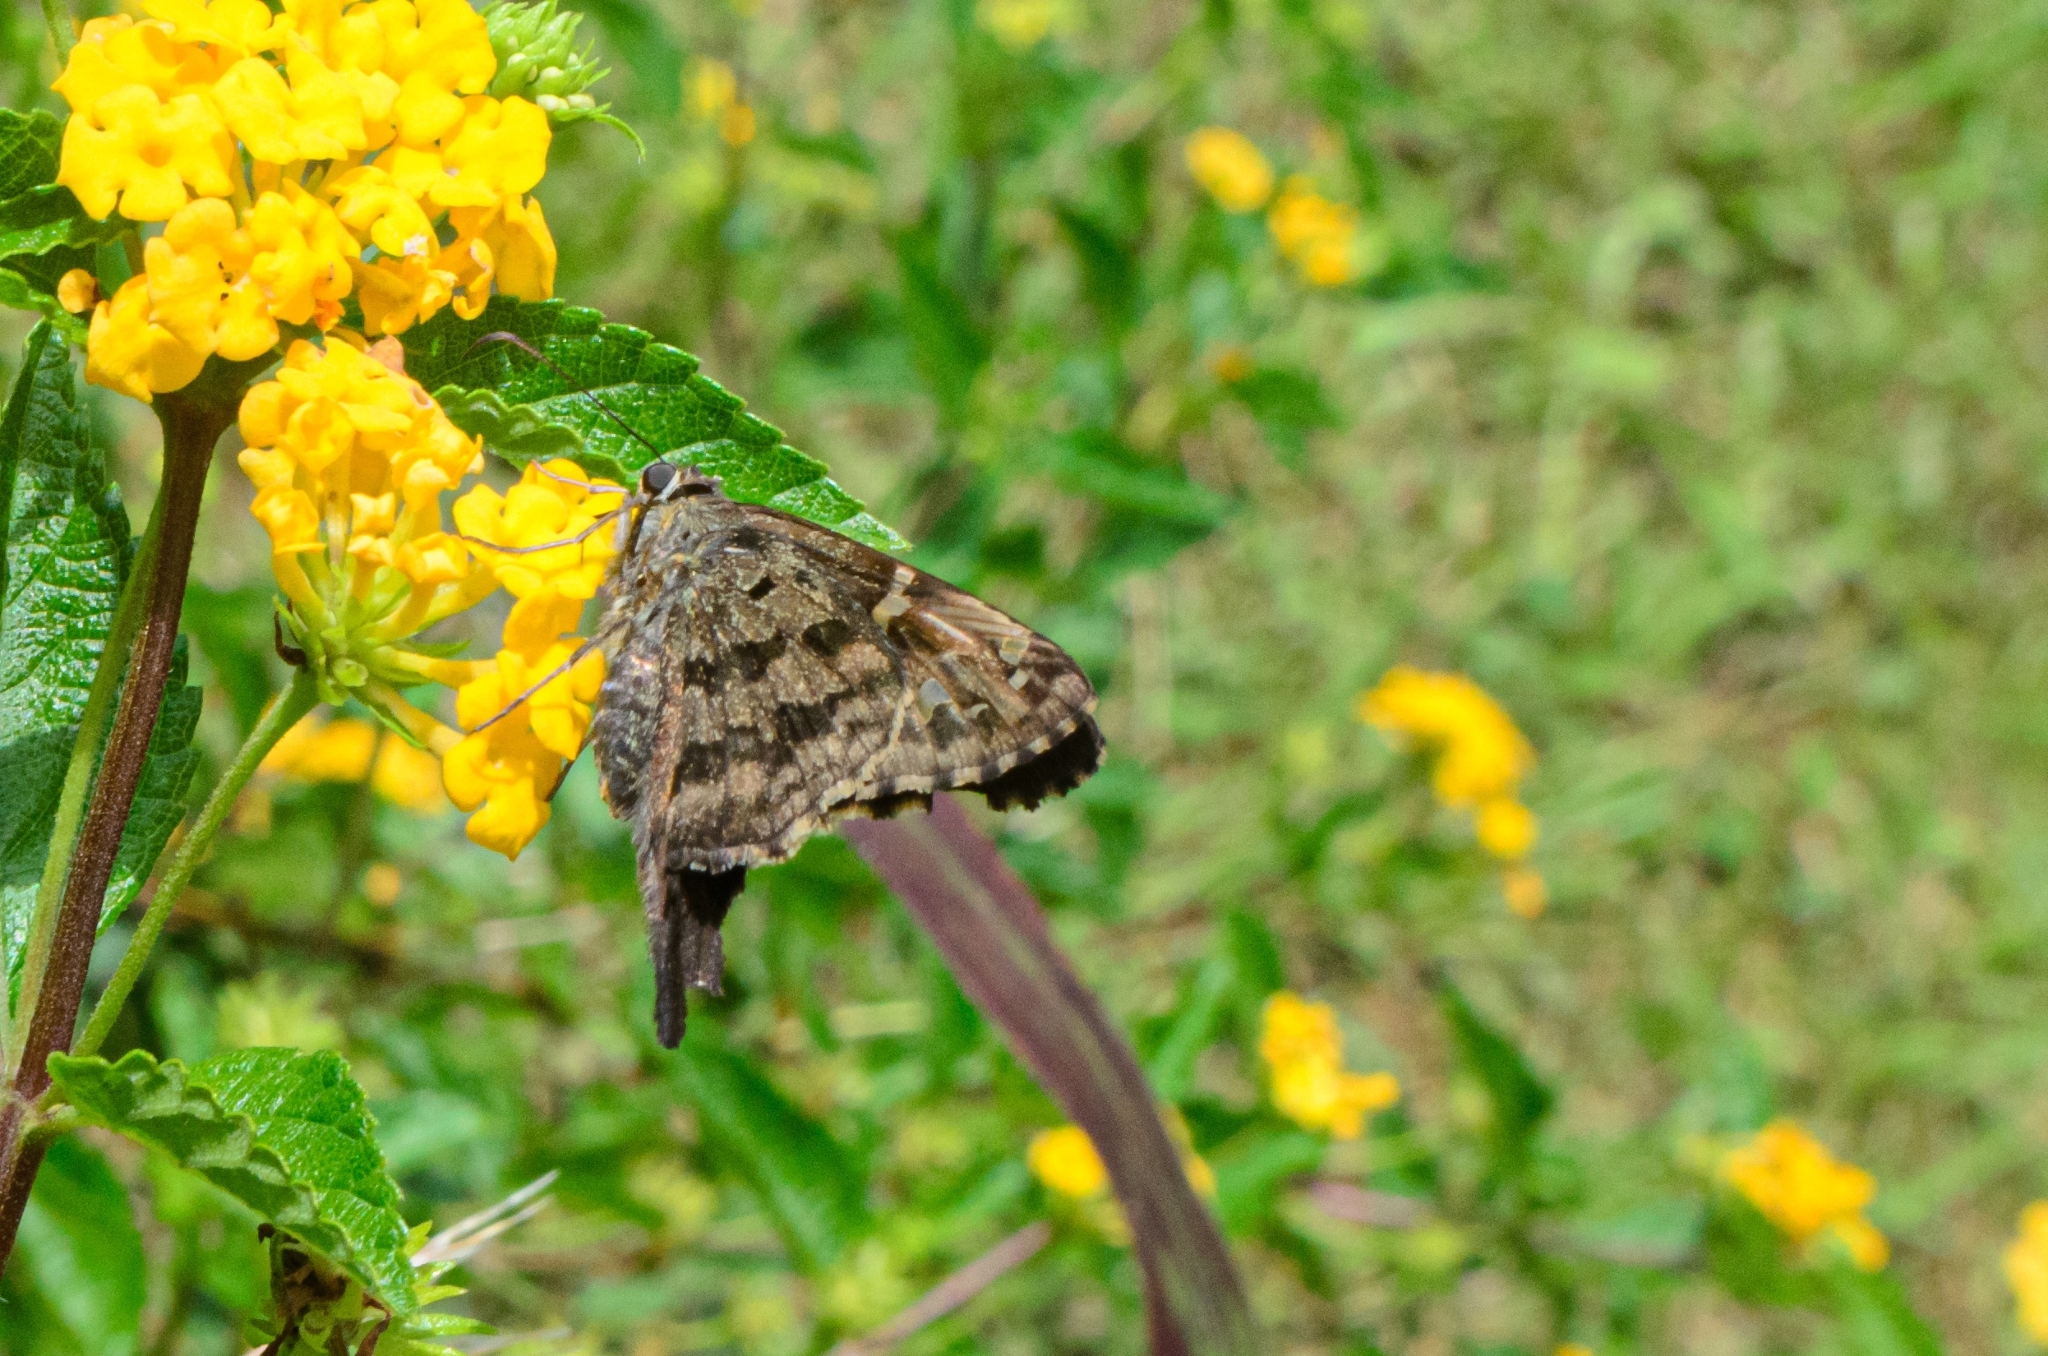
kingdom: Animalia
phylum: Arthropoda
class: Insecta
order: Lepidoptera
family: Hesperiidae
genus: Thorybes
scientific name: Thorybes
